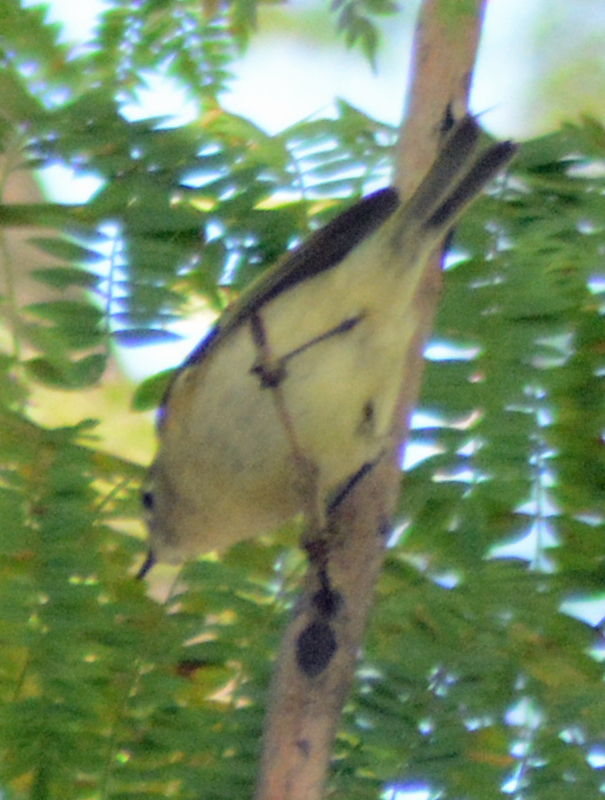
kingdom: Animalia
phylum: Chordata
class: Aves
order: Passeriformes
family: Regulidae
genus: Regulus
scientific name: Regulus calendula
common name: Ruby-crowned kinglet
